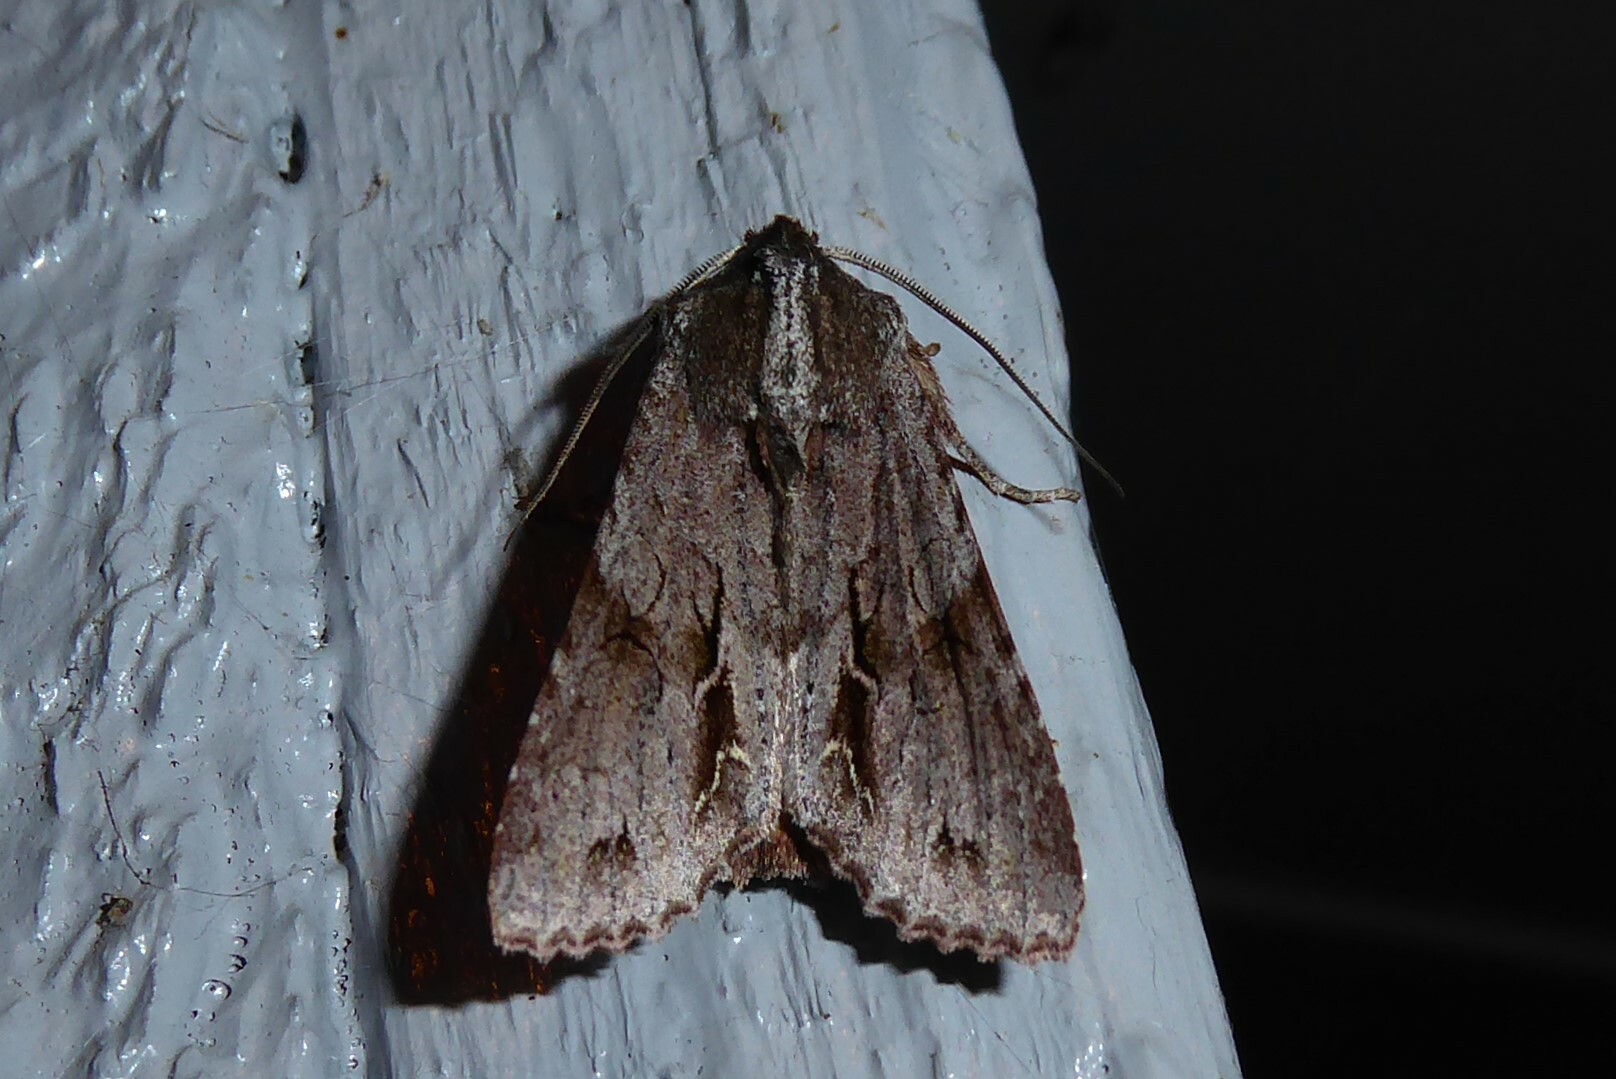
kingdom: Animalia
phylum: Arthropoda
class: Insecta
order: Lepidoptera
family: Noctuidae
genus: Ichneutica
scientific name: Ichneutica
